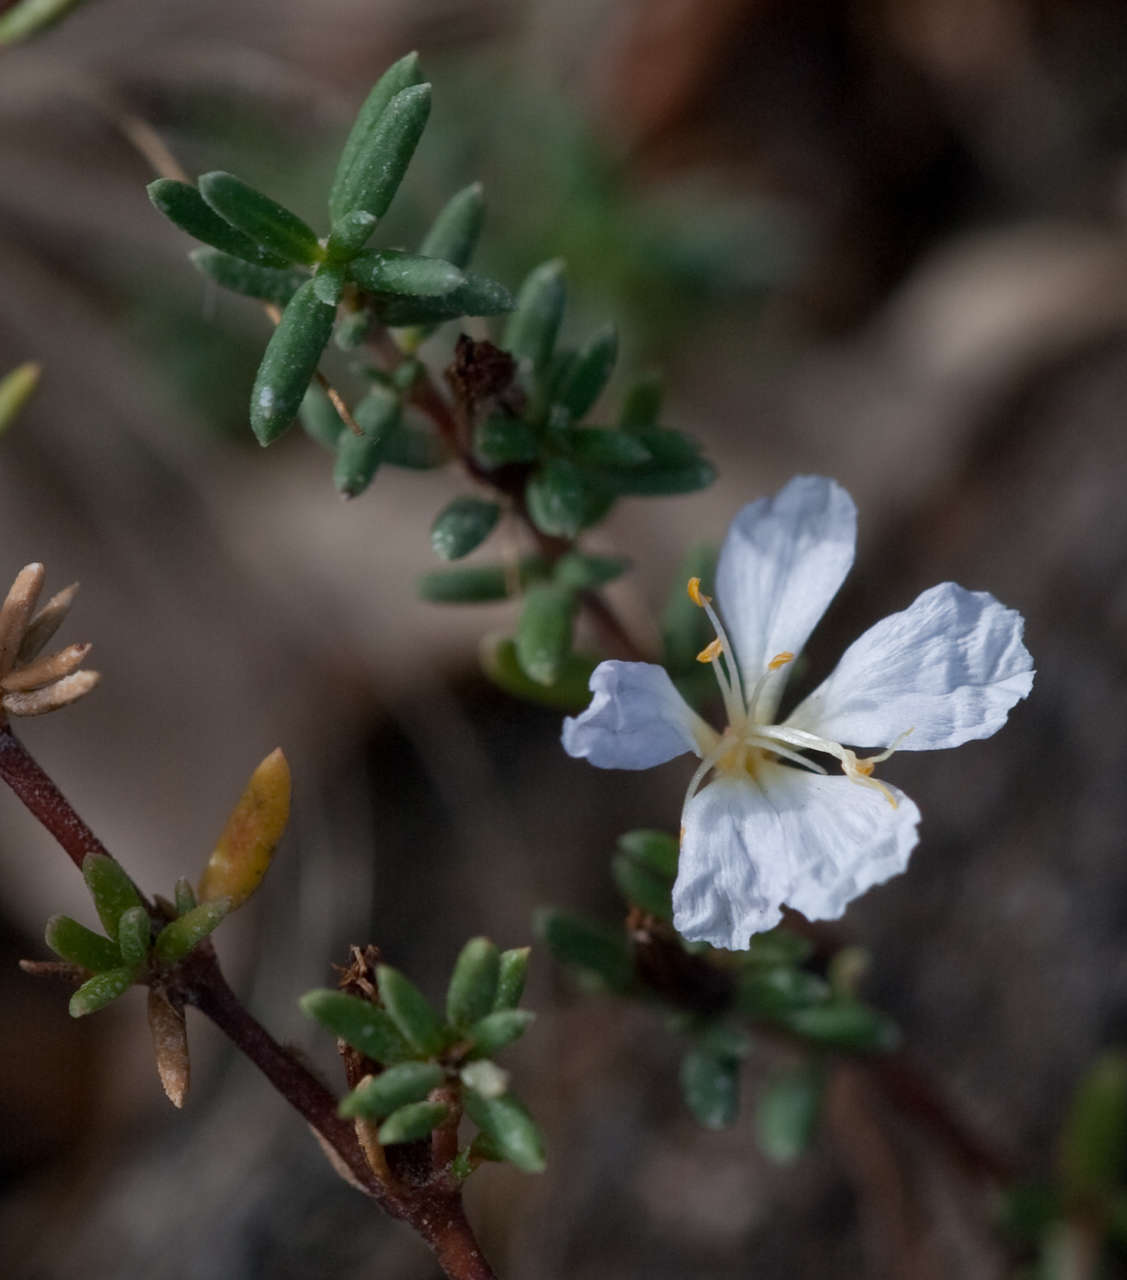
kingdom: Plantae
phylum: Tracheophyta
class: Magnoliopsida
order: Caryophyllales
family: Frankeniaceae
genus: Frankenia
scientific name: Frankenia pauciflora
